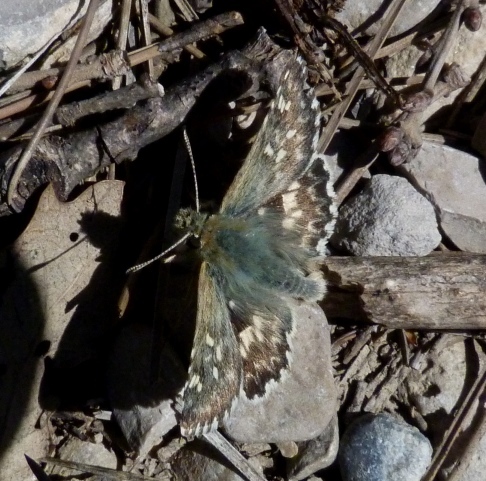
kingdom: Animalia
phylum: Arthropoda
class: Insecta
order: Lepidoptera
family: Hesperiidae
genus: Syrichtus
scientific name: Syrichtus Muschampia proto
